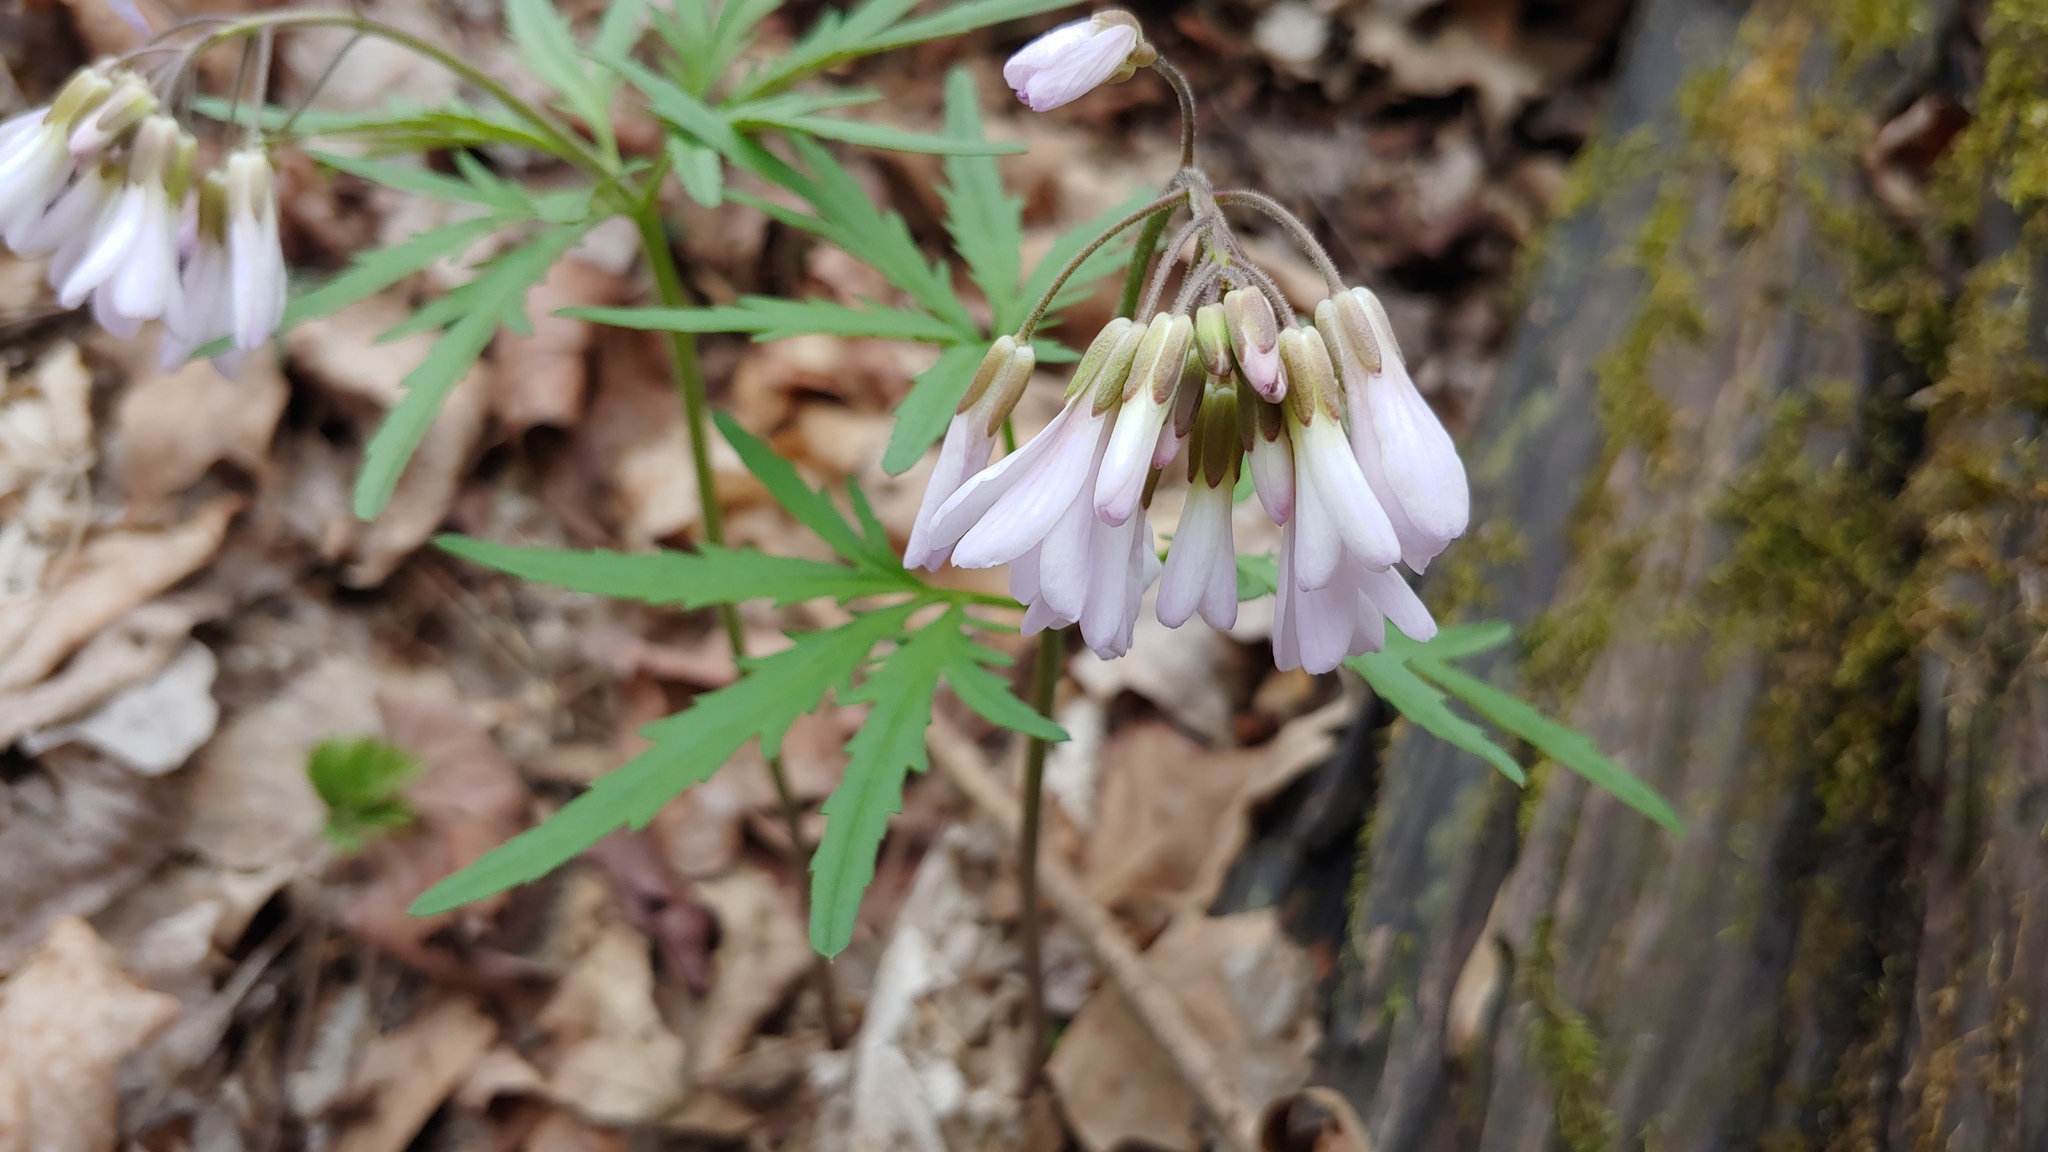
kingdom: Plantae
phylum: Tracheophyta
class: Magnoliopsida
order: Brassicales
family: Brassicaceae
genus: Cardamine
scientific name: Cardamine concatenata
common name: Cut-leaf toothcup
